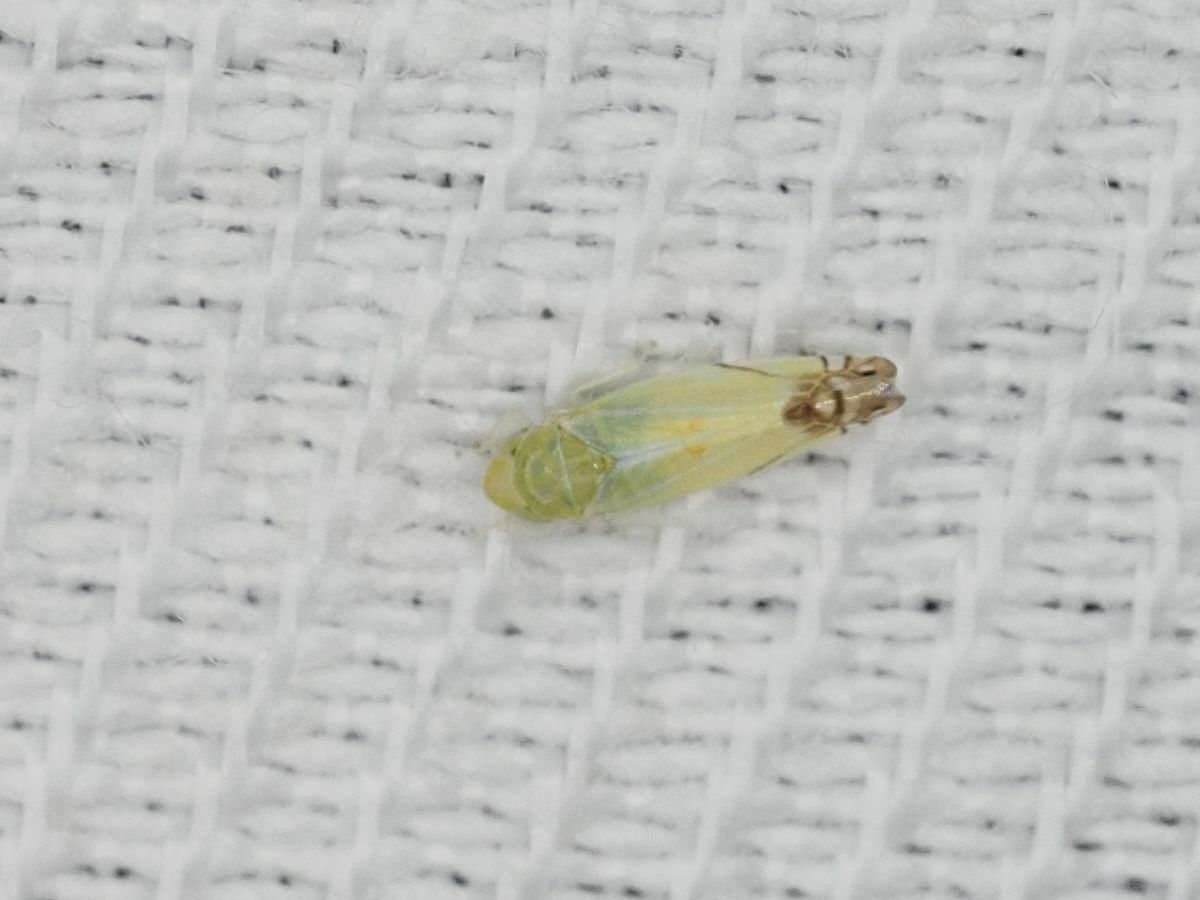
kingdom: Animalia
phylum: Arthropoda
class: Insecta
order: Hemiptera
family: Cicadellidae
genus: Zyginella
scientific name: Zyginella pulchra
